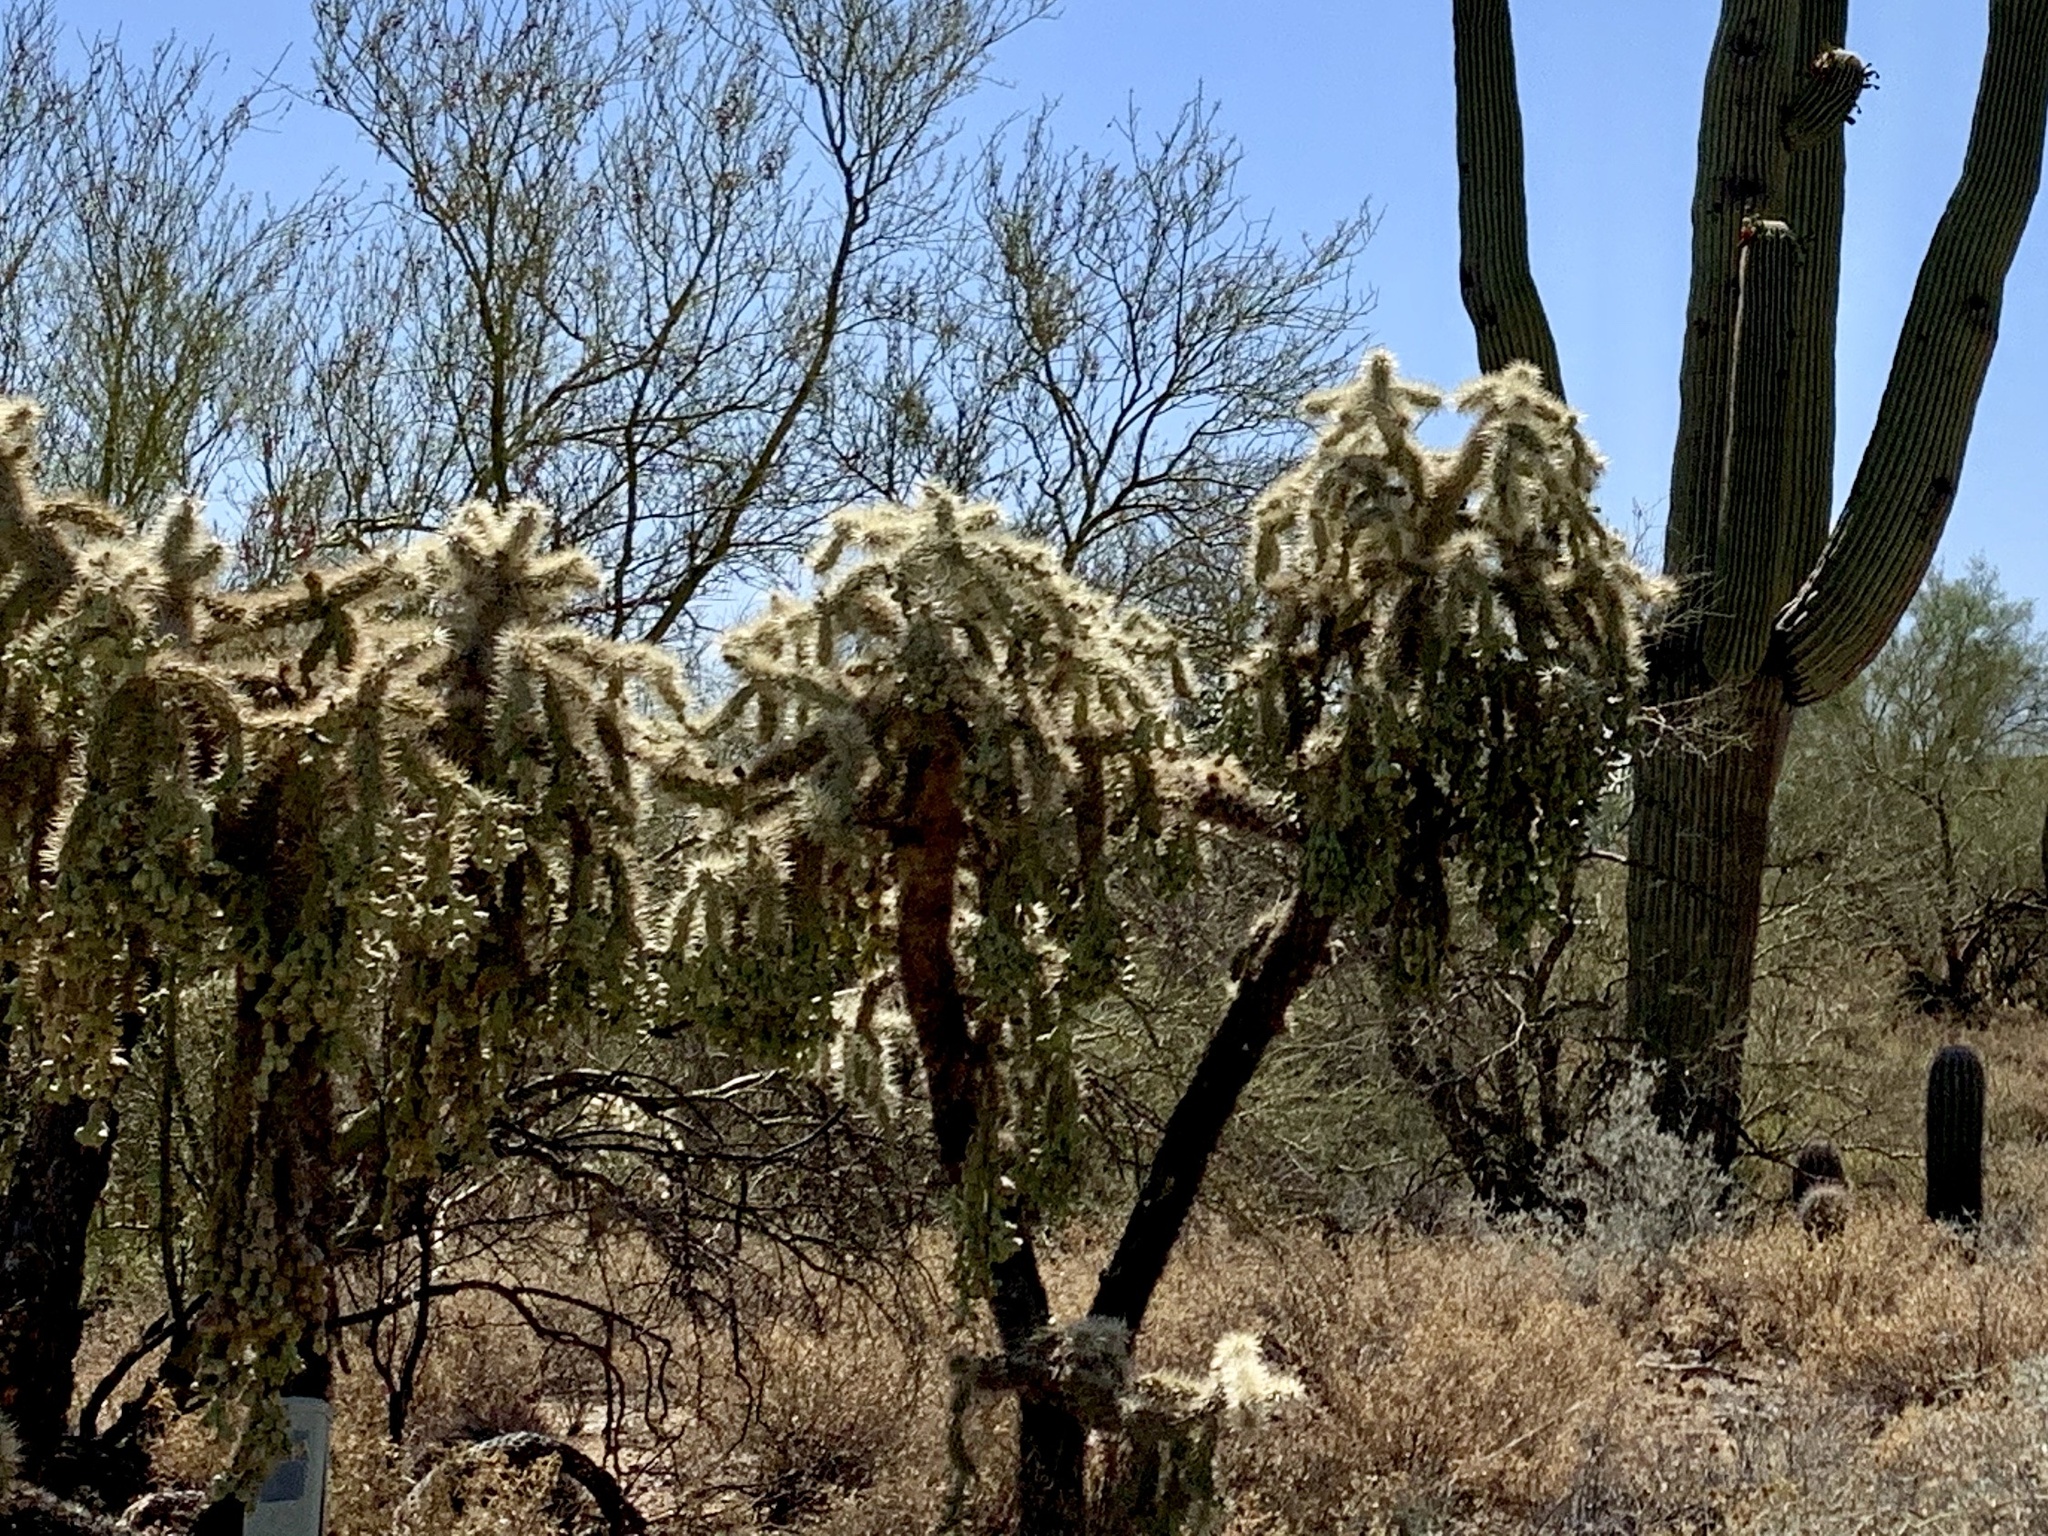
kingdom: Plantae
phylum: Tracheophyta
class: Magnoliopsida
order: Caryophyllales
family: Cactaceae
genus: Cylindropuntia
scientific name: Cylindropuntia fulgida
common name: Jumping cholla
